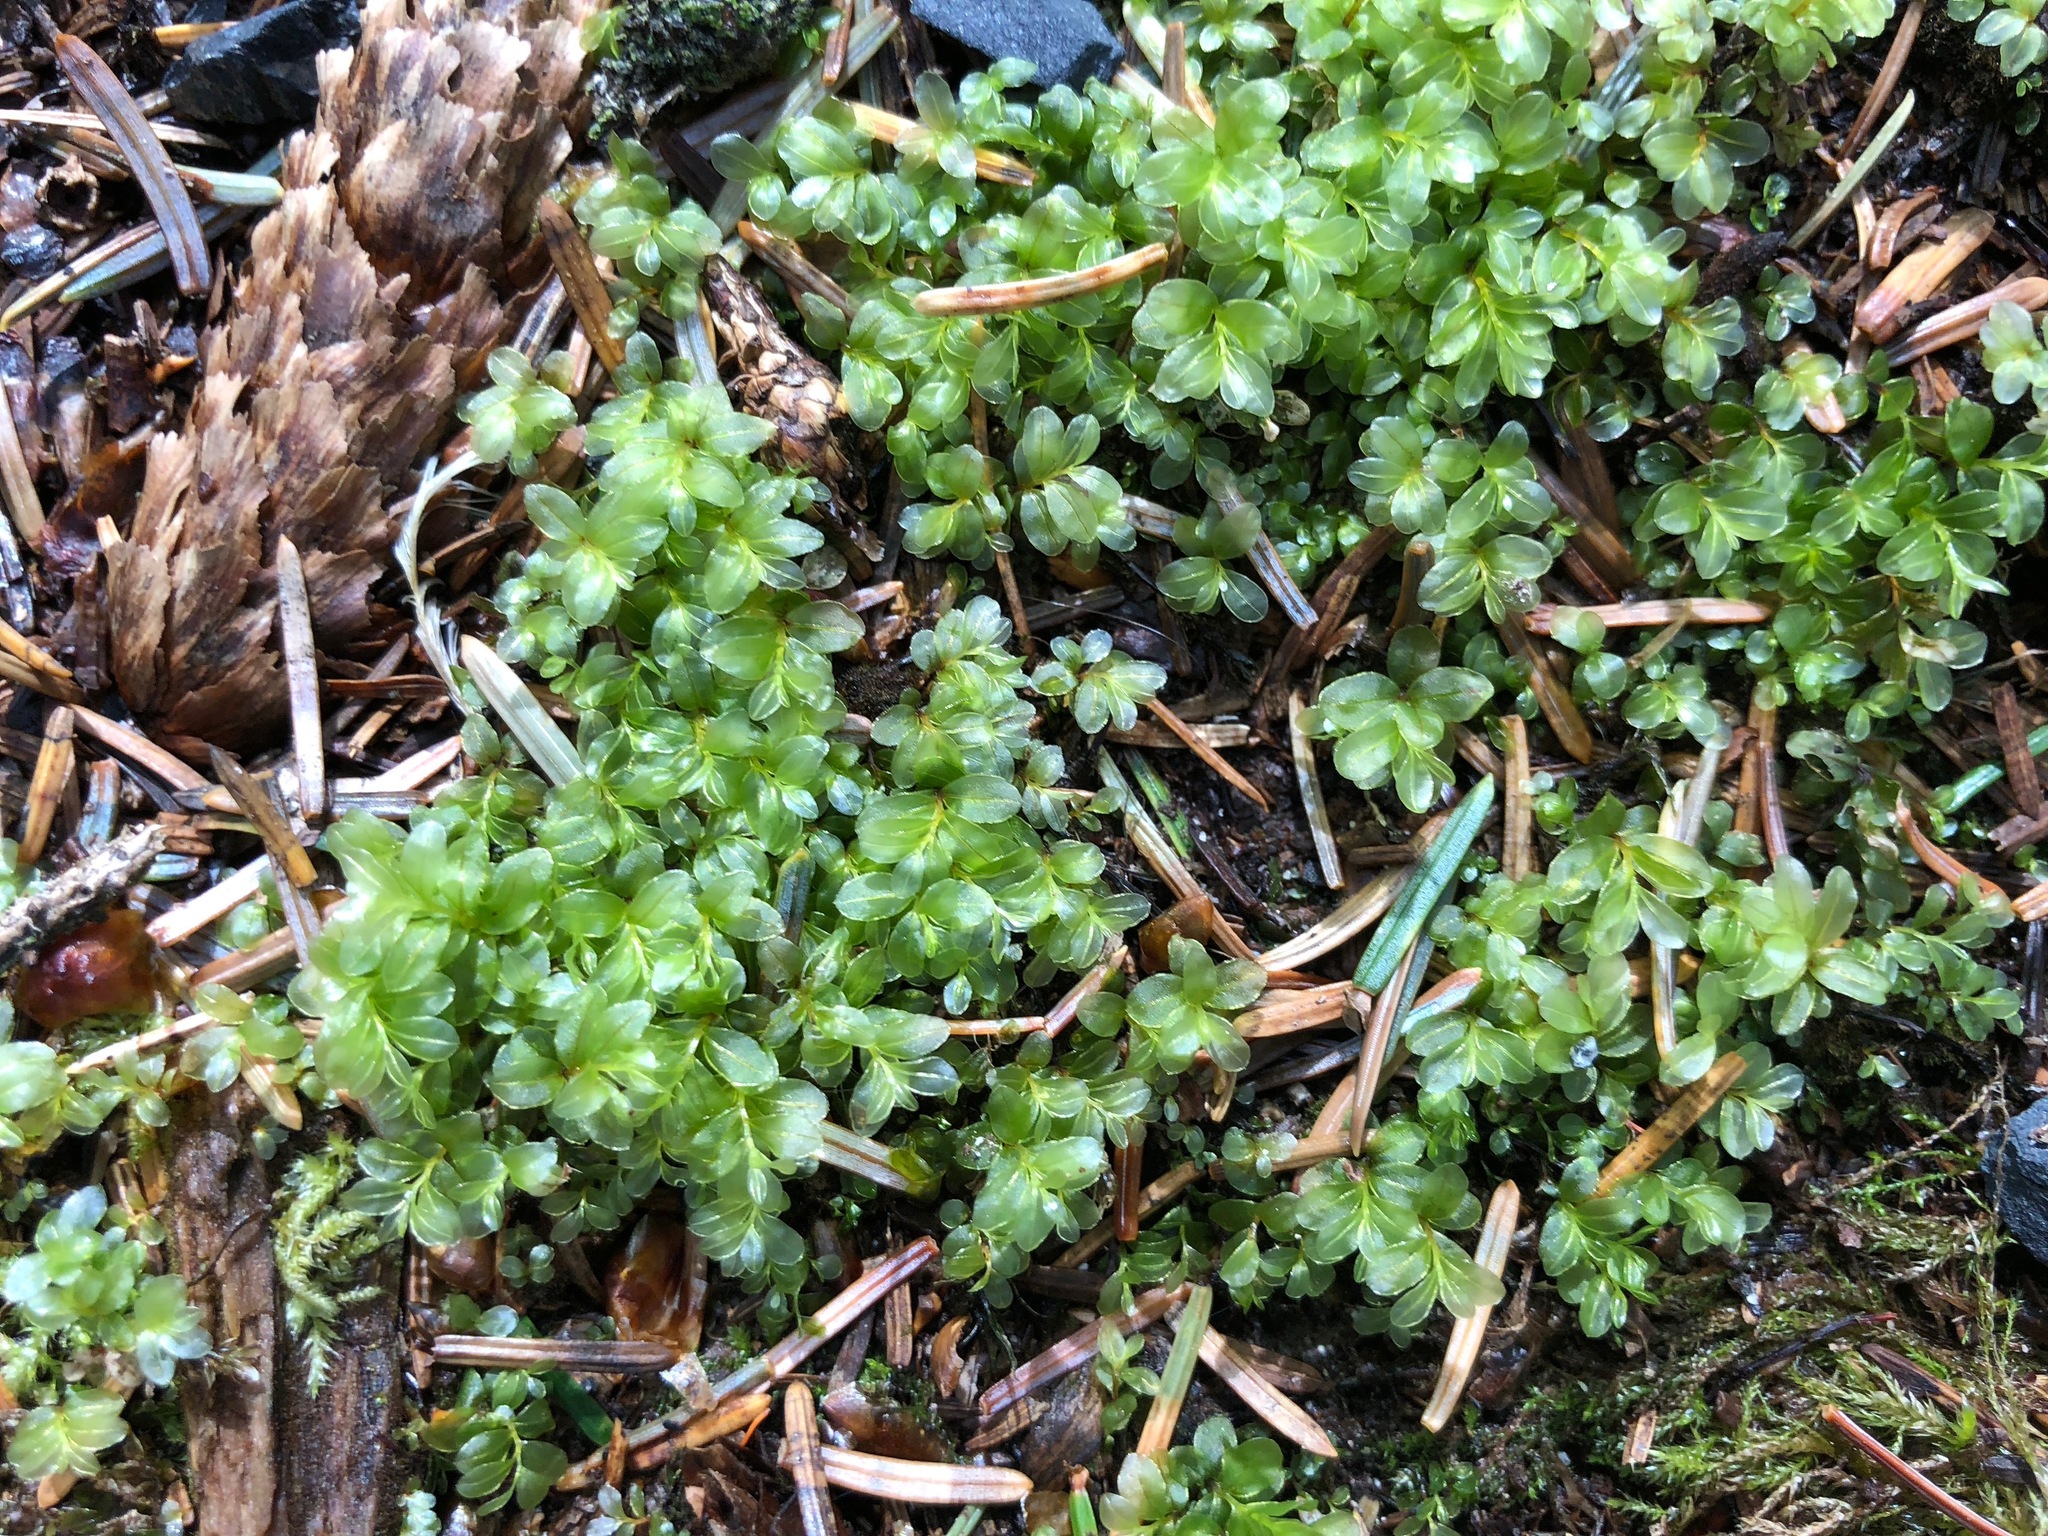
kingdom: Plantae
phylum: Bryophyta
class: Bryopsida
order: Bryales
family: Mniaceae
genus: Rhizomnium
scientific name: Rhizomnium glabrescens
